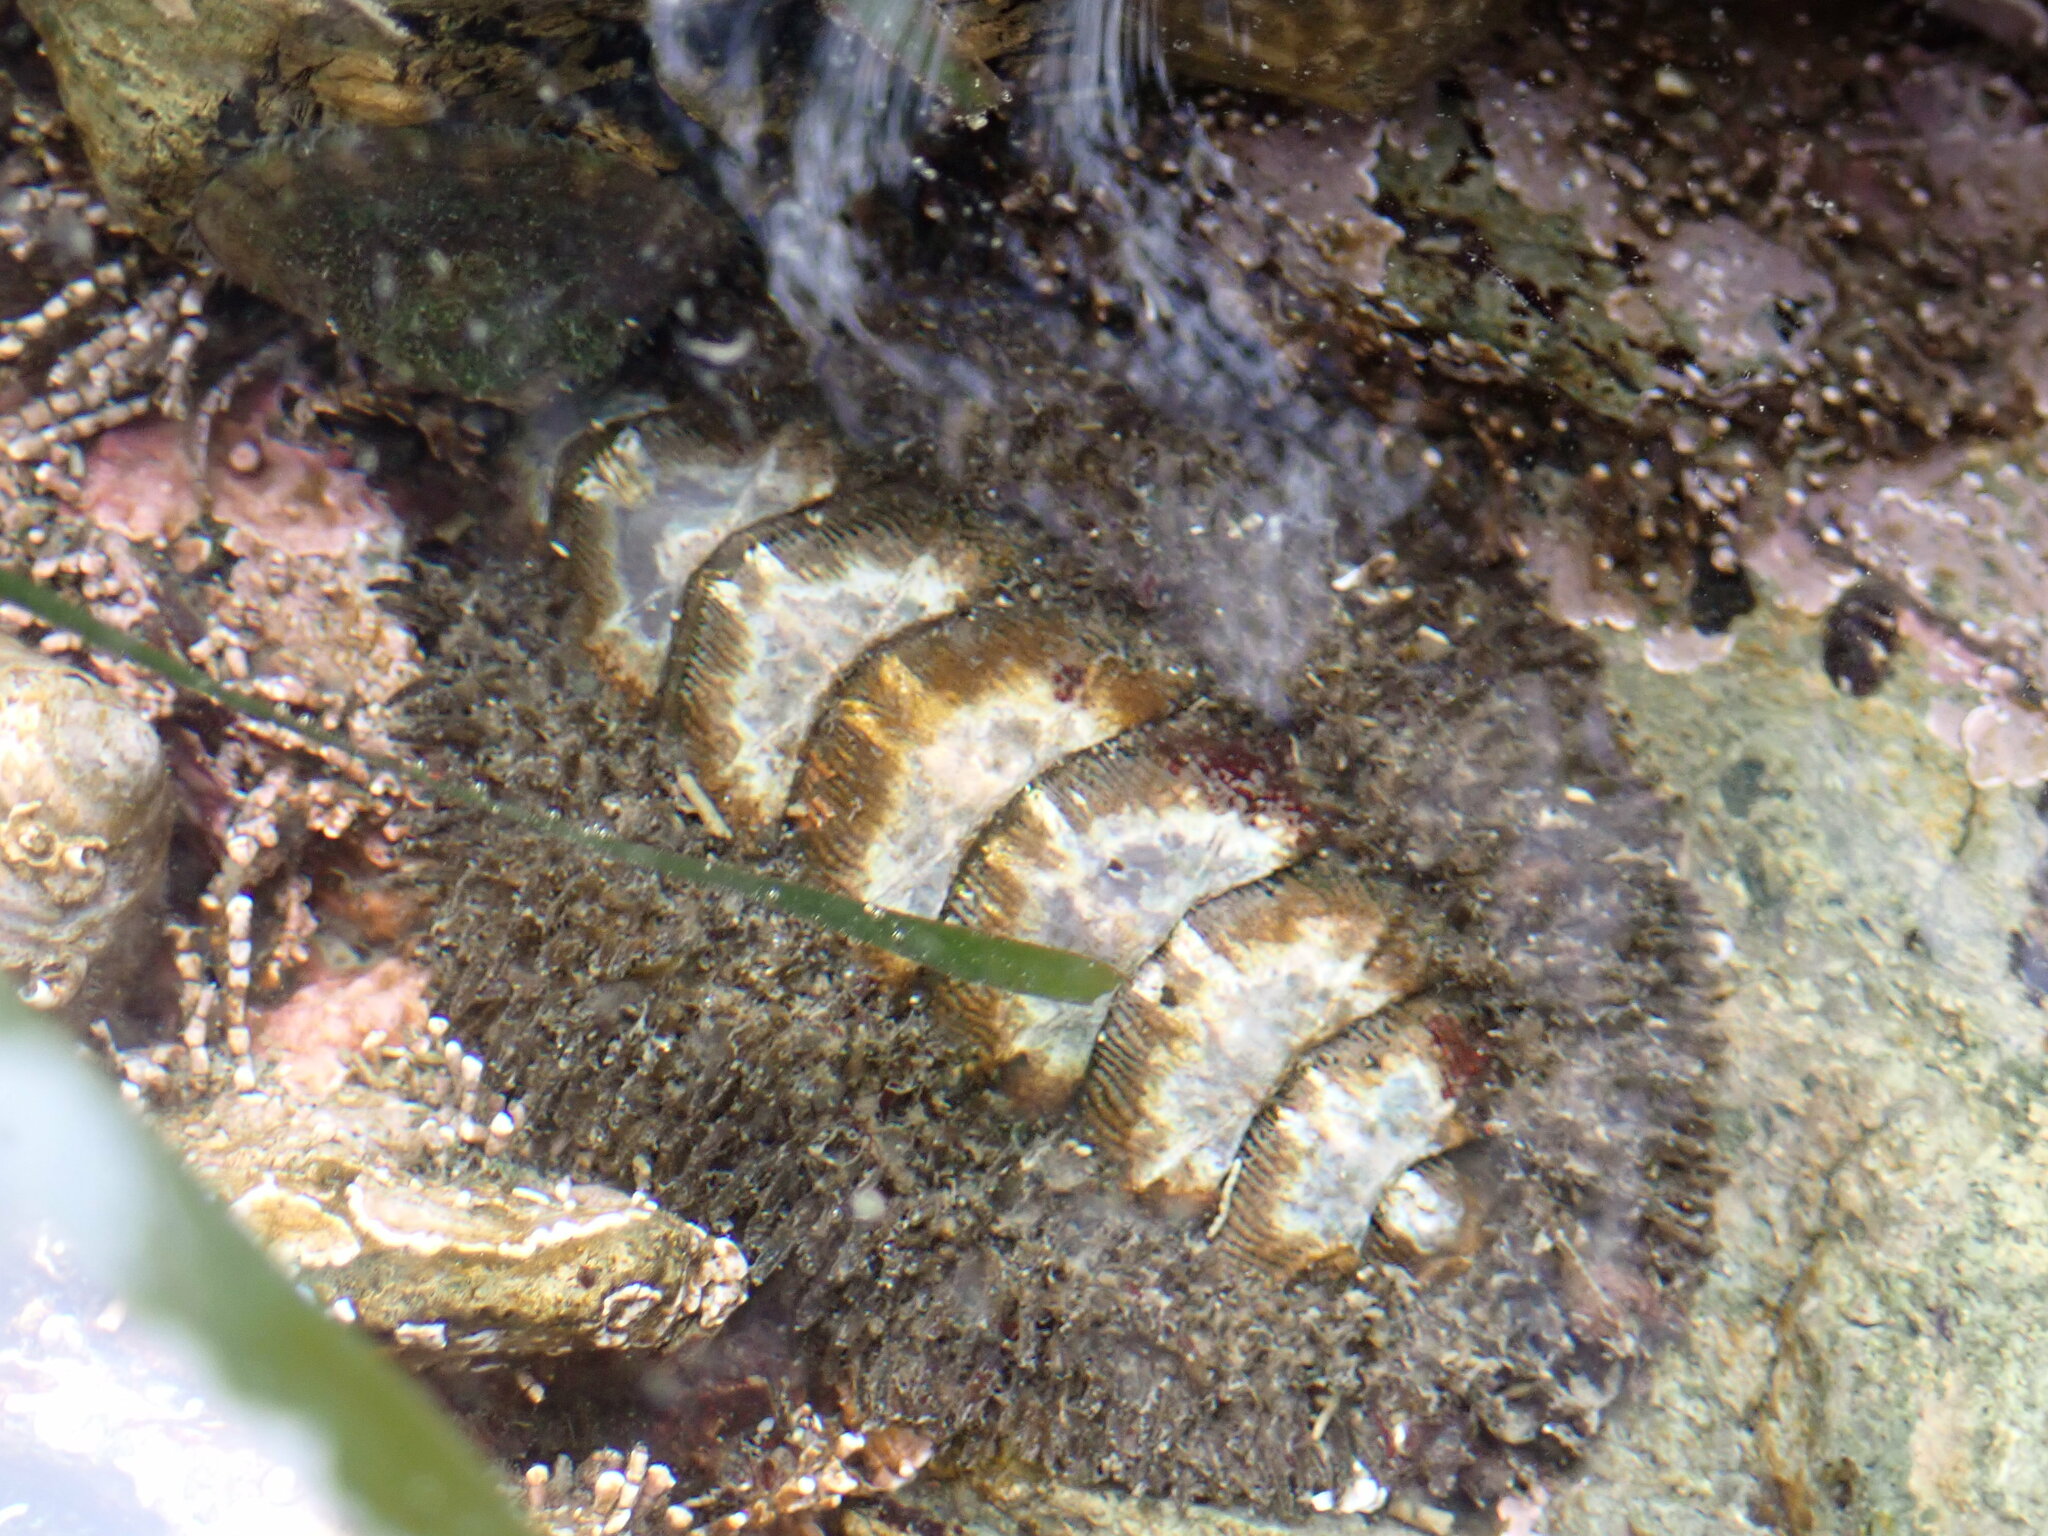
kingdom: Animalia
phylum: Mollusca
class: Polyplacophora
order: Chitonida
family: Mopaliidae
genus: Mopalia
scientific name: Mopalia muscosa
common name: Mossy chiton
